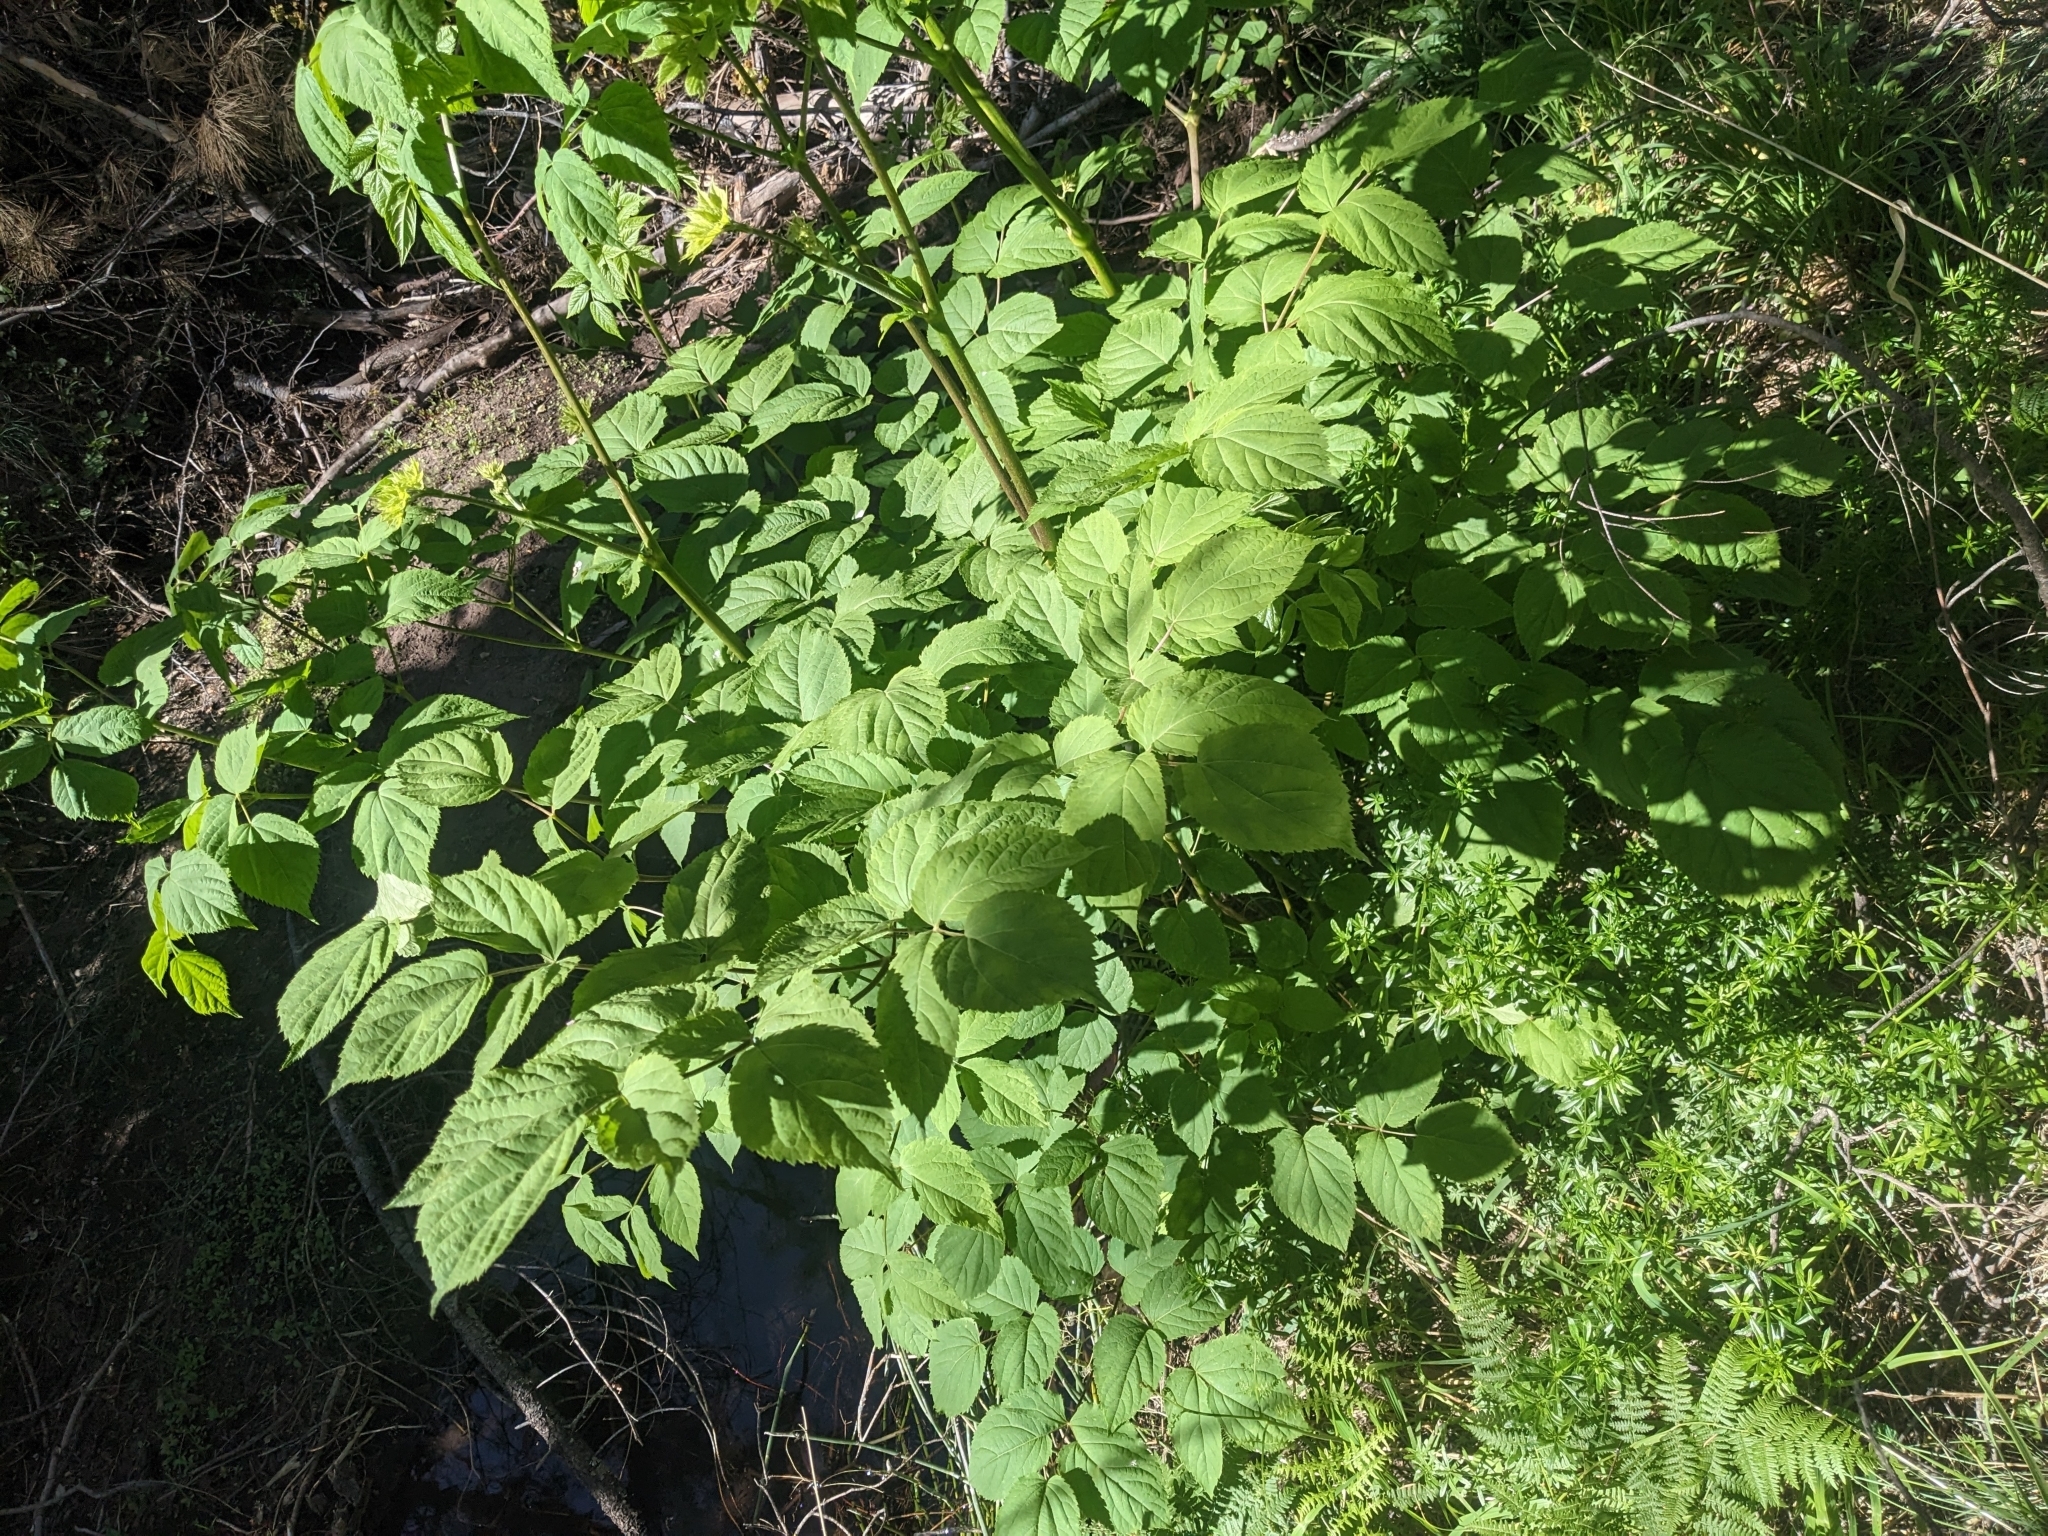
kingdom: Plantae
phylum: Tracheophyta
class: Magnoliopsida
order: Apiales
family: Araliaceae
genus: Aralia
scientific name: Aralia bicrenata
